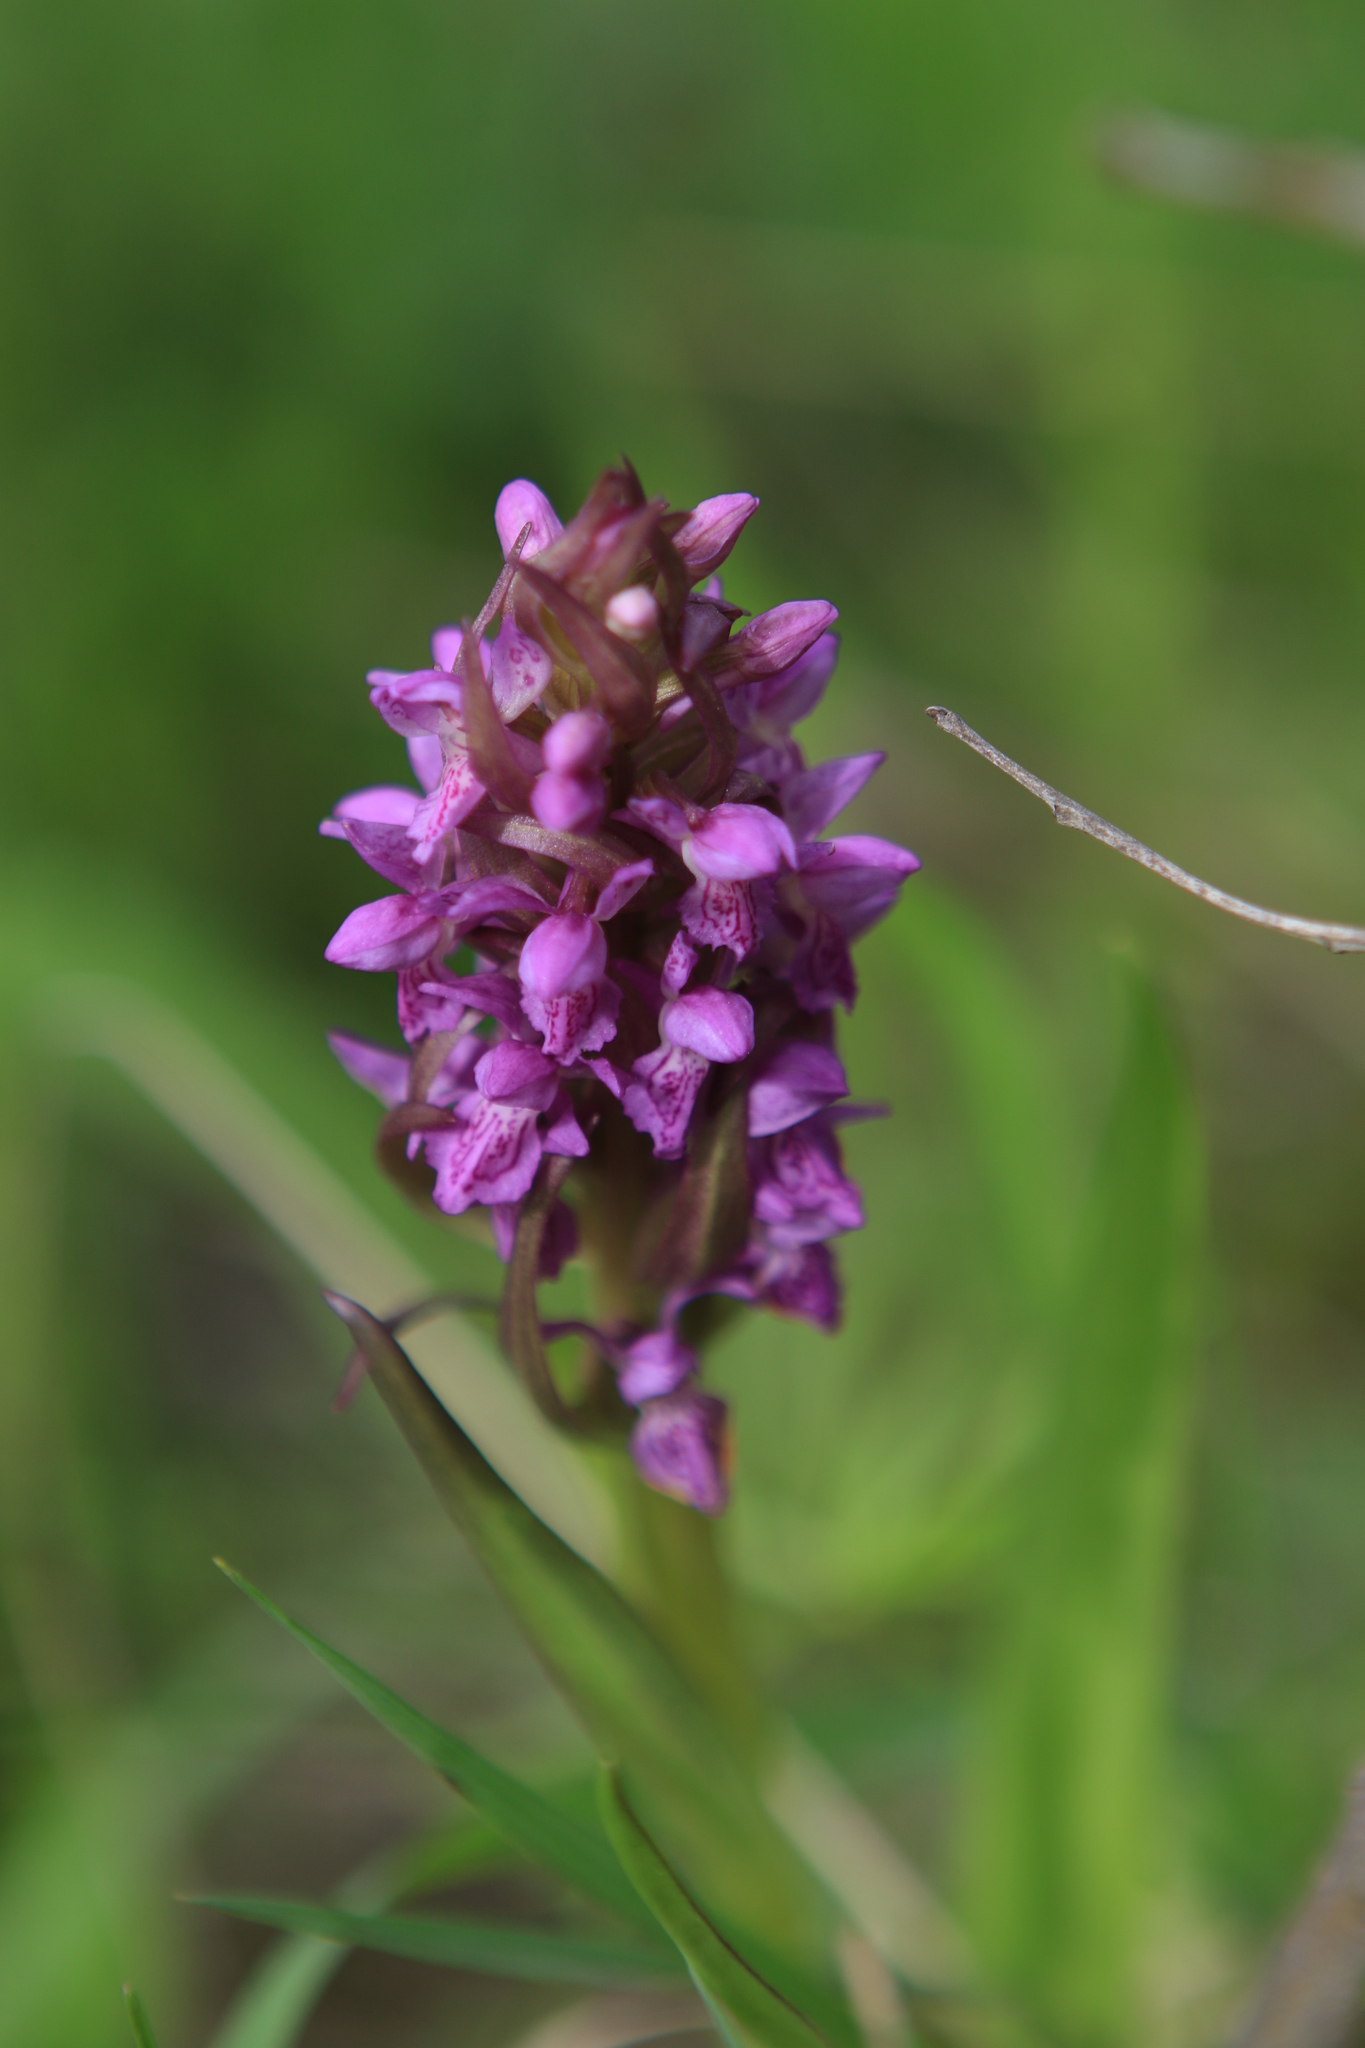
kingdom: Plantae
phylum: Tracheophyta
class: Liliopsida
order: Asparagales
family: Orchidaceae
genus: Dactylorhiza
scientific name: Dactylorhiza incarnata
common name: Early marsh-orchid
